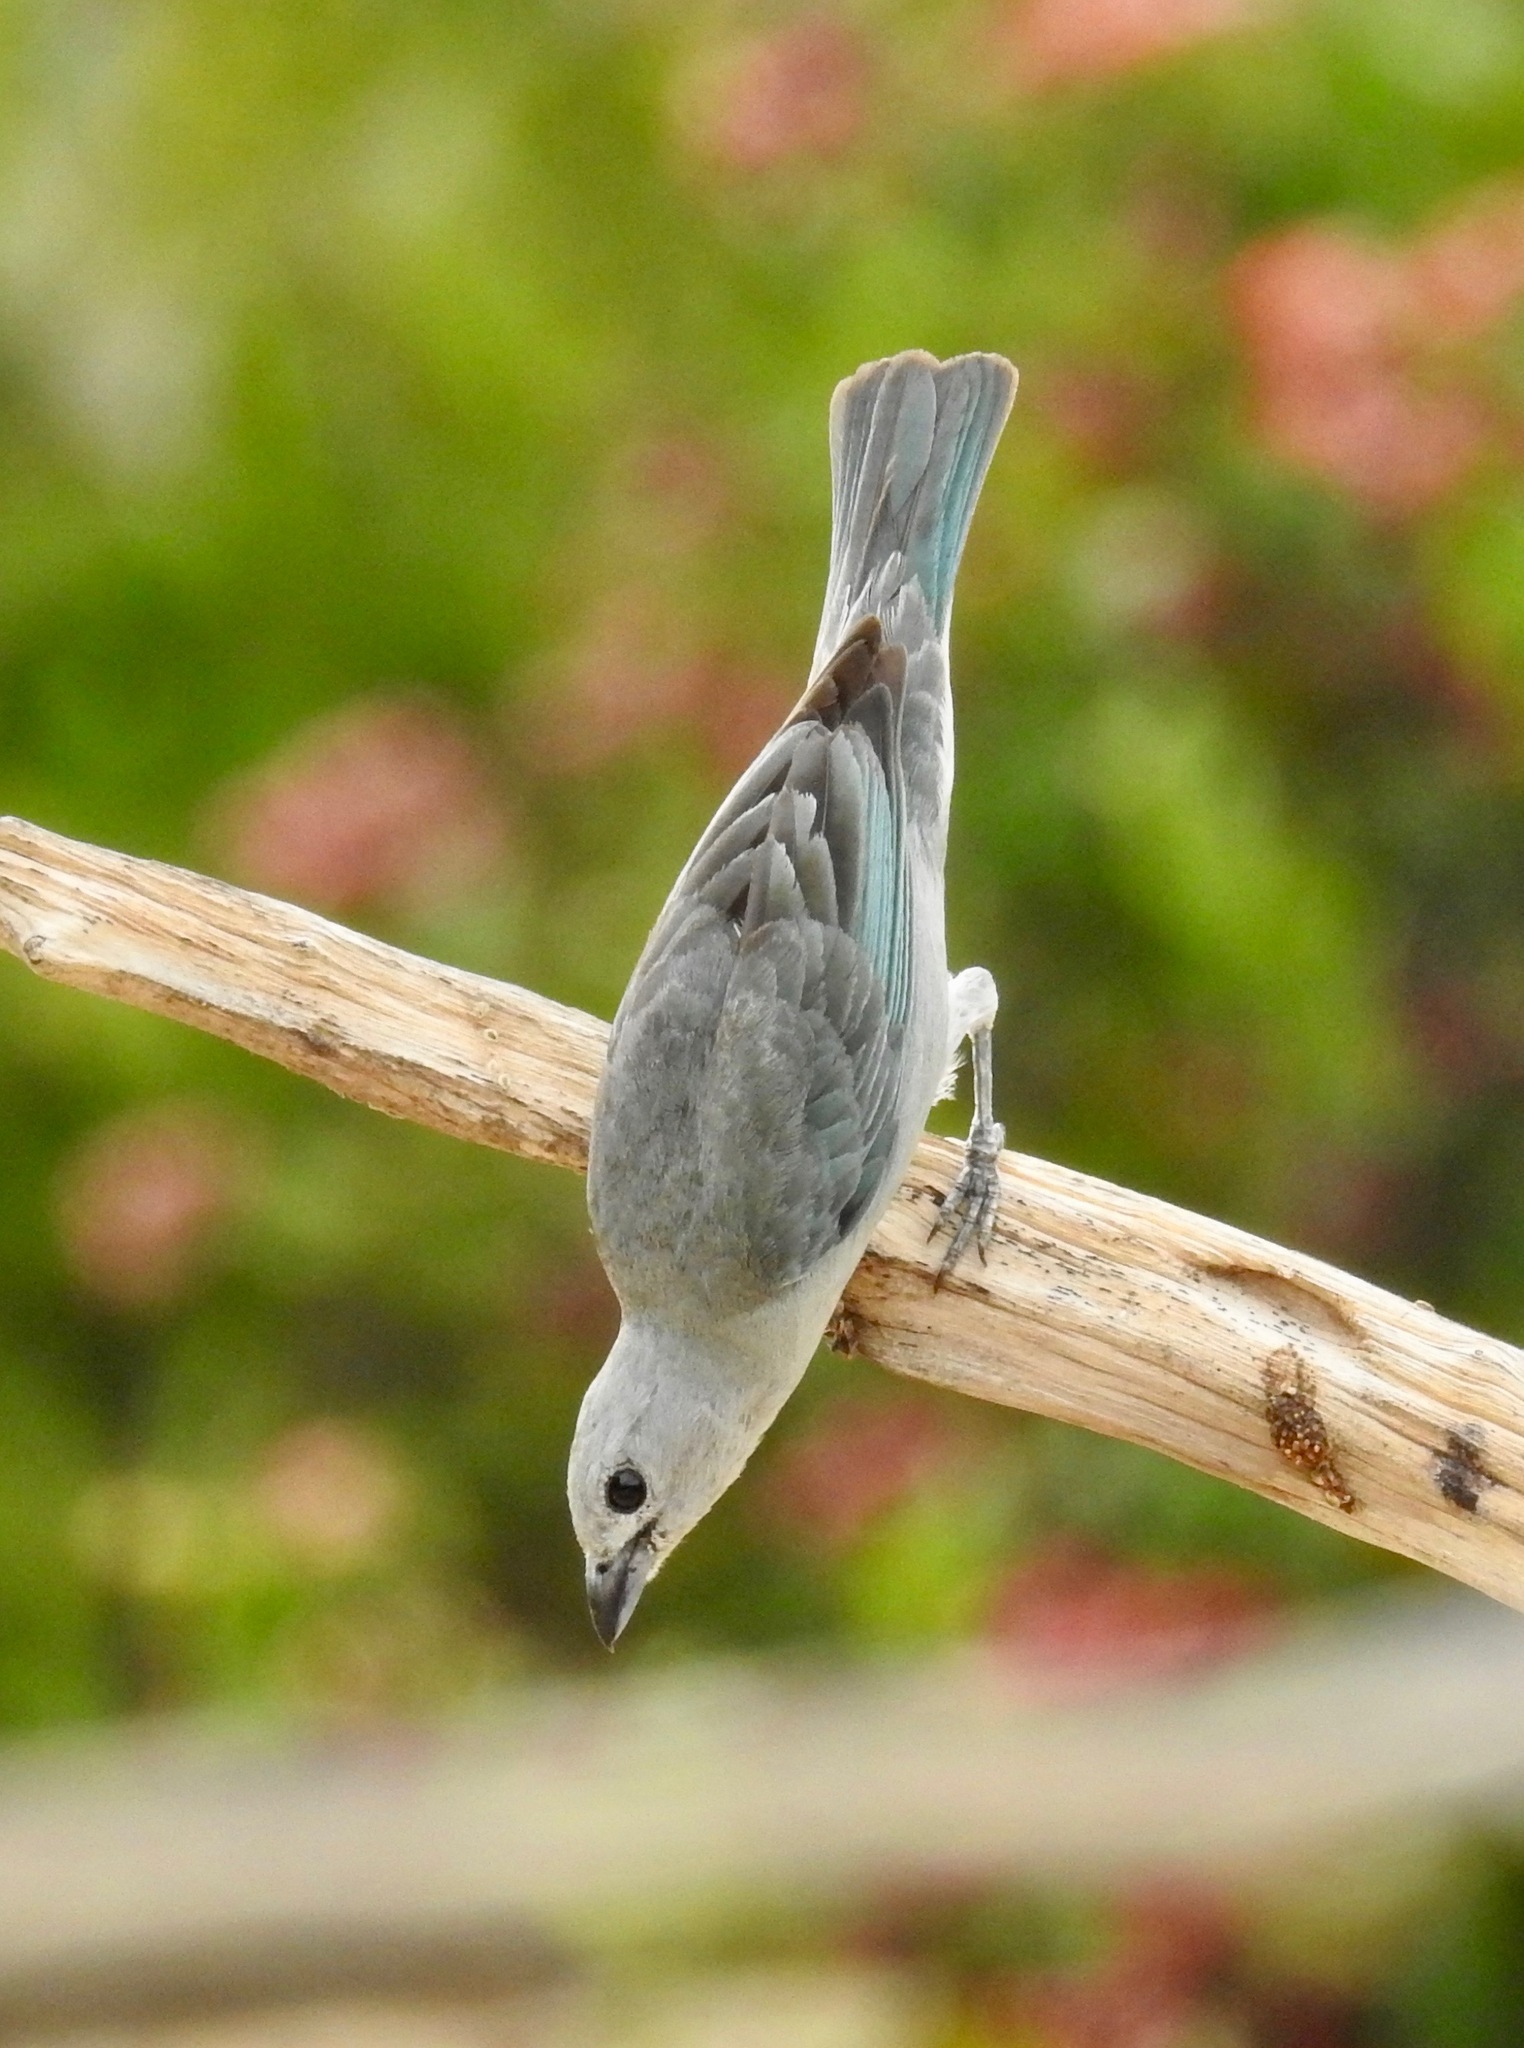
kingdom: Animalia
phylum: Chordata
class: Aves
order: Passeriformes
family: Thraupidae
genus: Thraupis
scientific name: Thraupis sayaca
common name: Sayaca tanager
